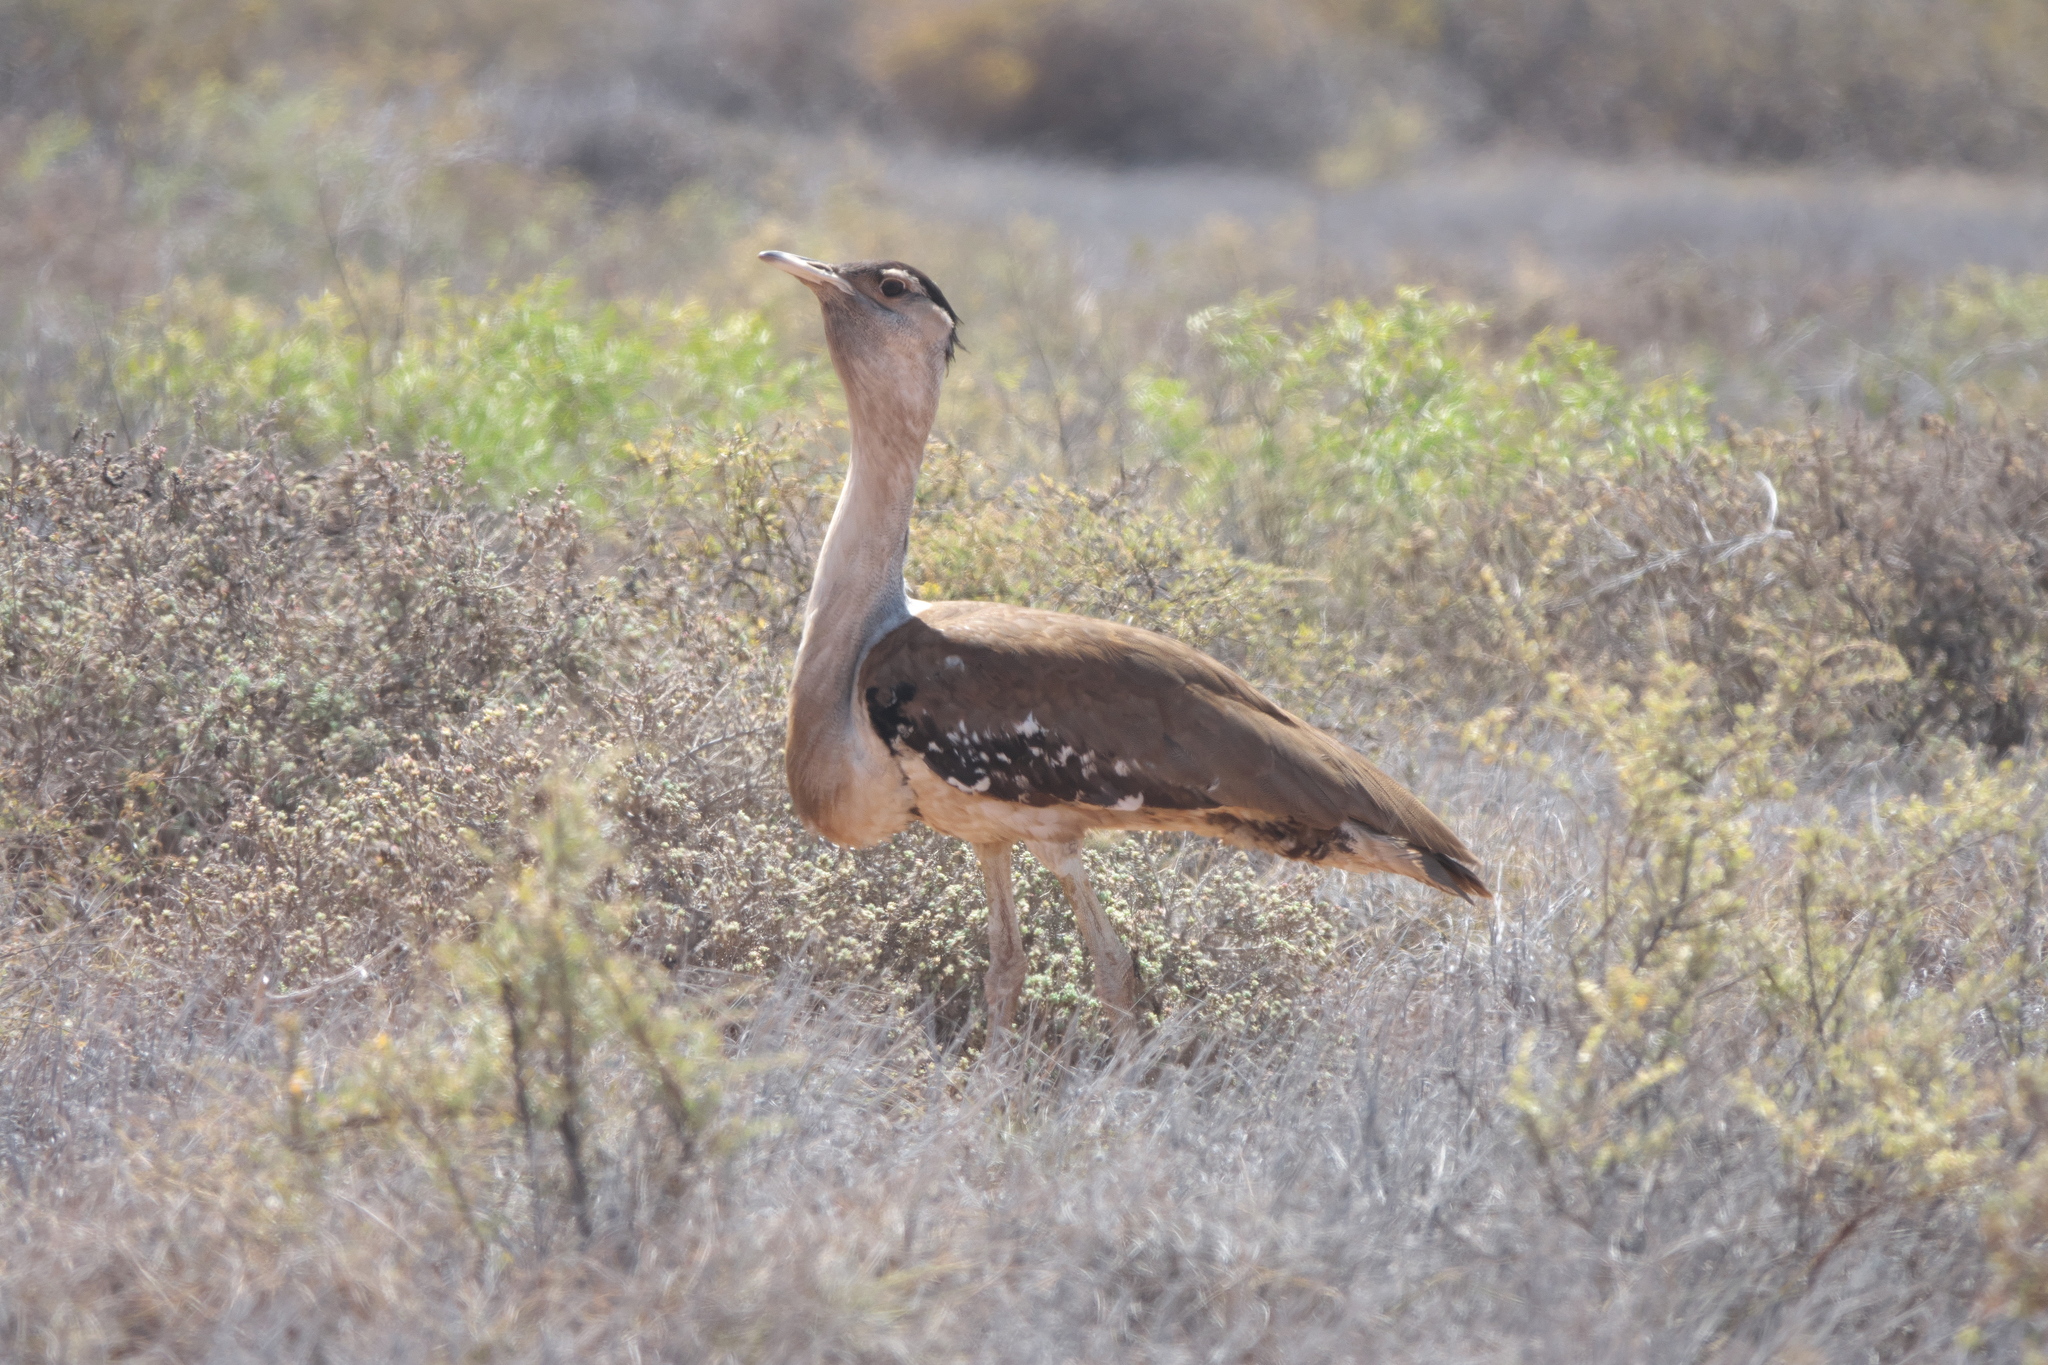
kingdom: Animalia
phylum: Chordata
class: Aves
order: Otidiformes
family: Otididae
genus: Ardeotis
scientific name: Ardeotis australis
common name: Australian bustard
